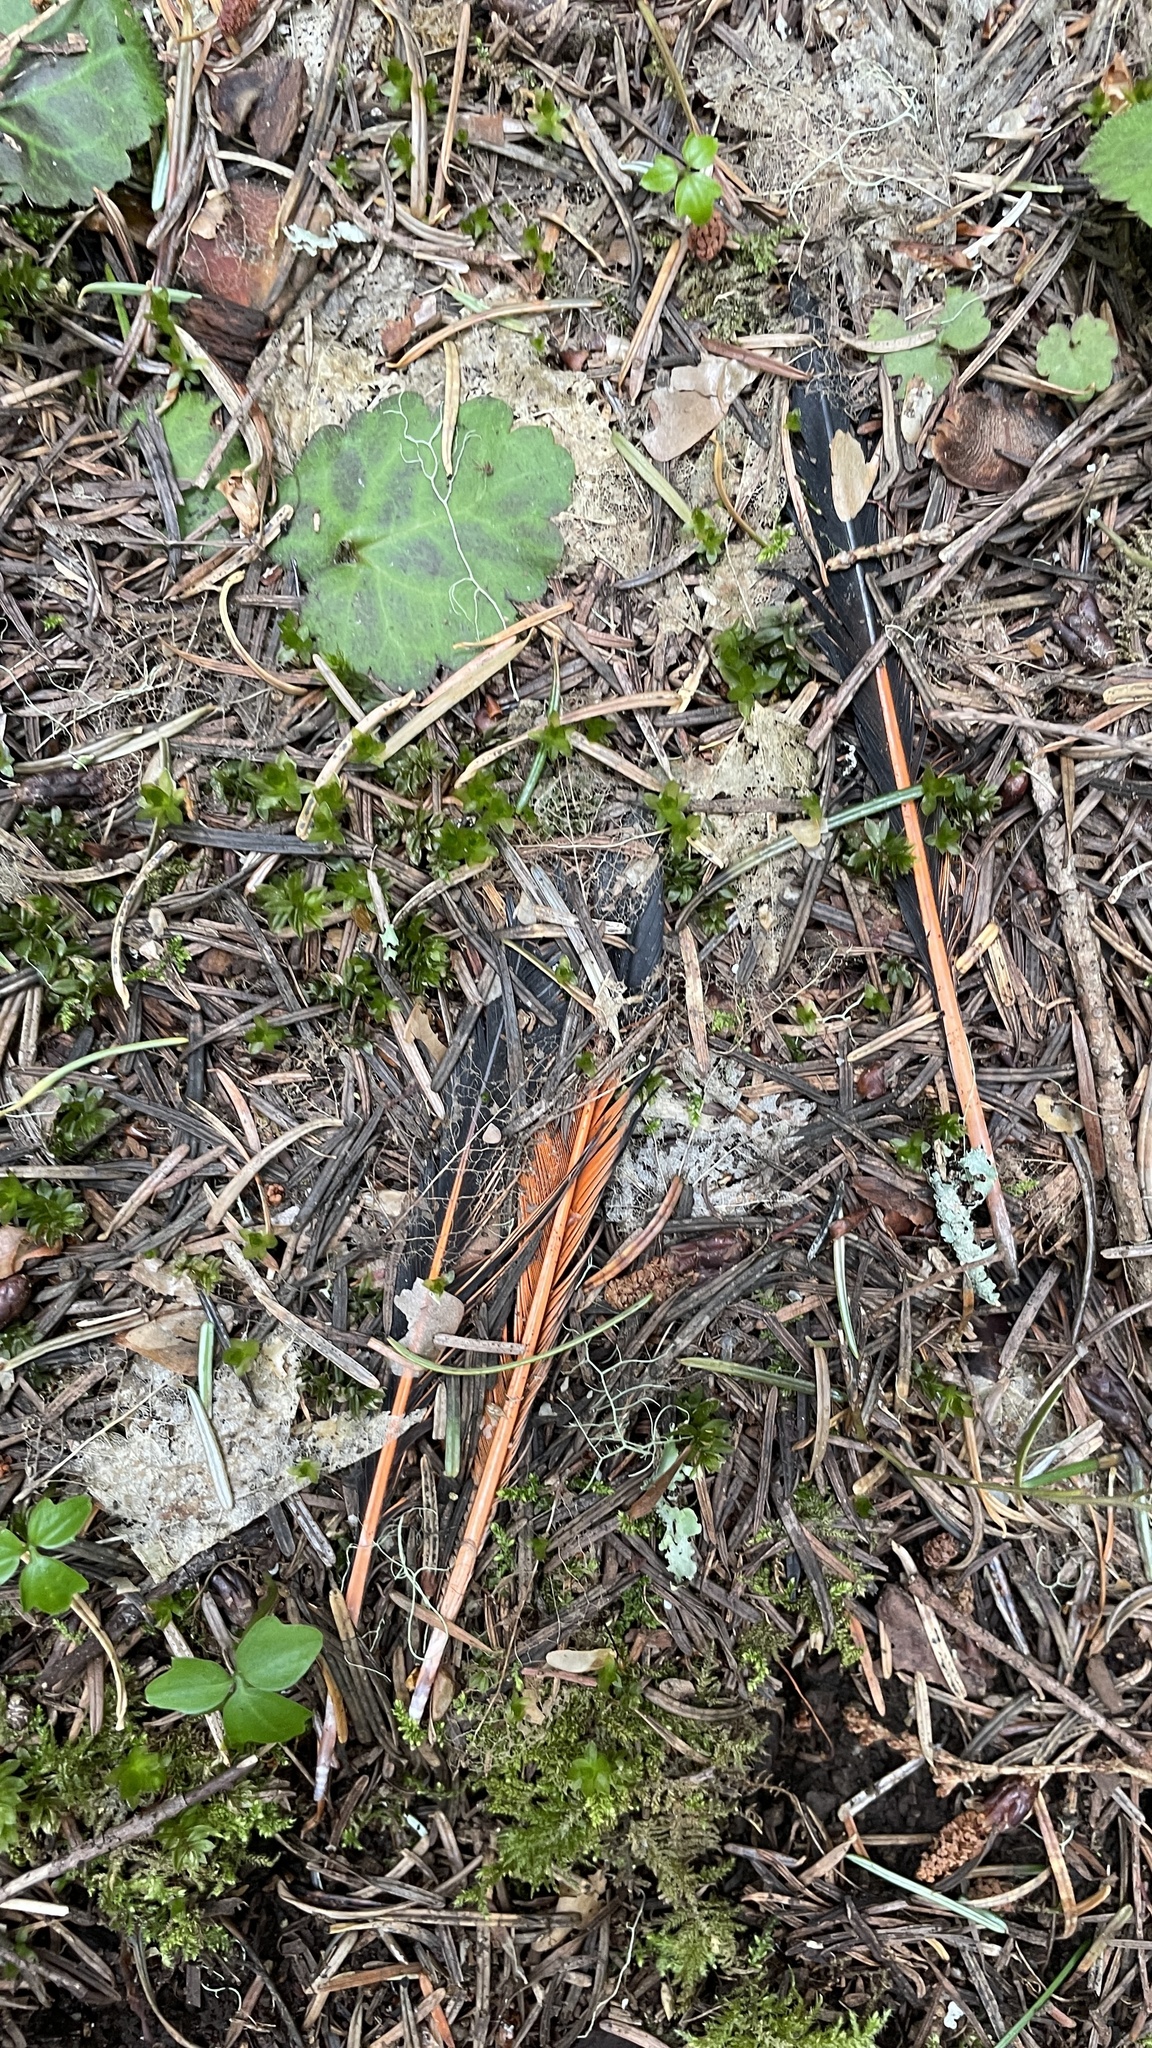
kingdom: Animalia
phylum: Chordata
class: Aves
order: Piciformes
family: Picidae
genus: Colaptes
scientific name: Colaptes auratus
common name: Northern flicker
